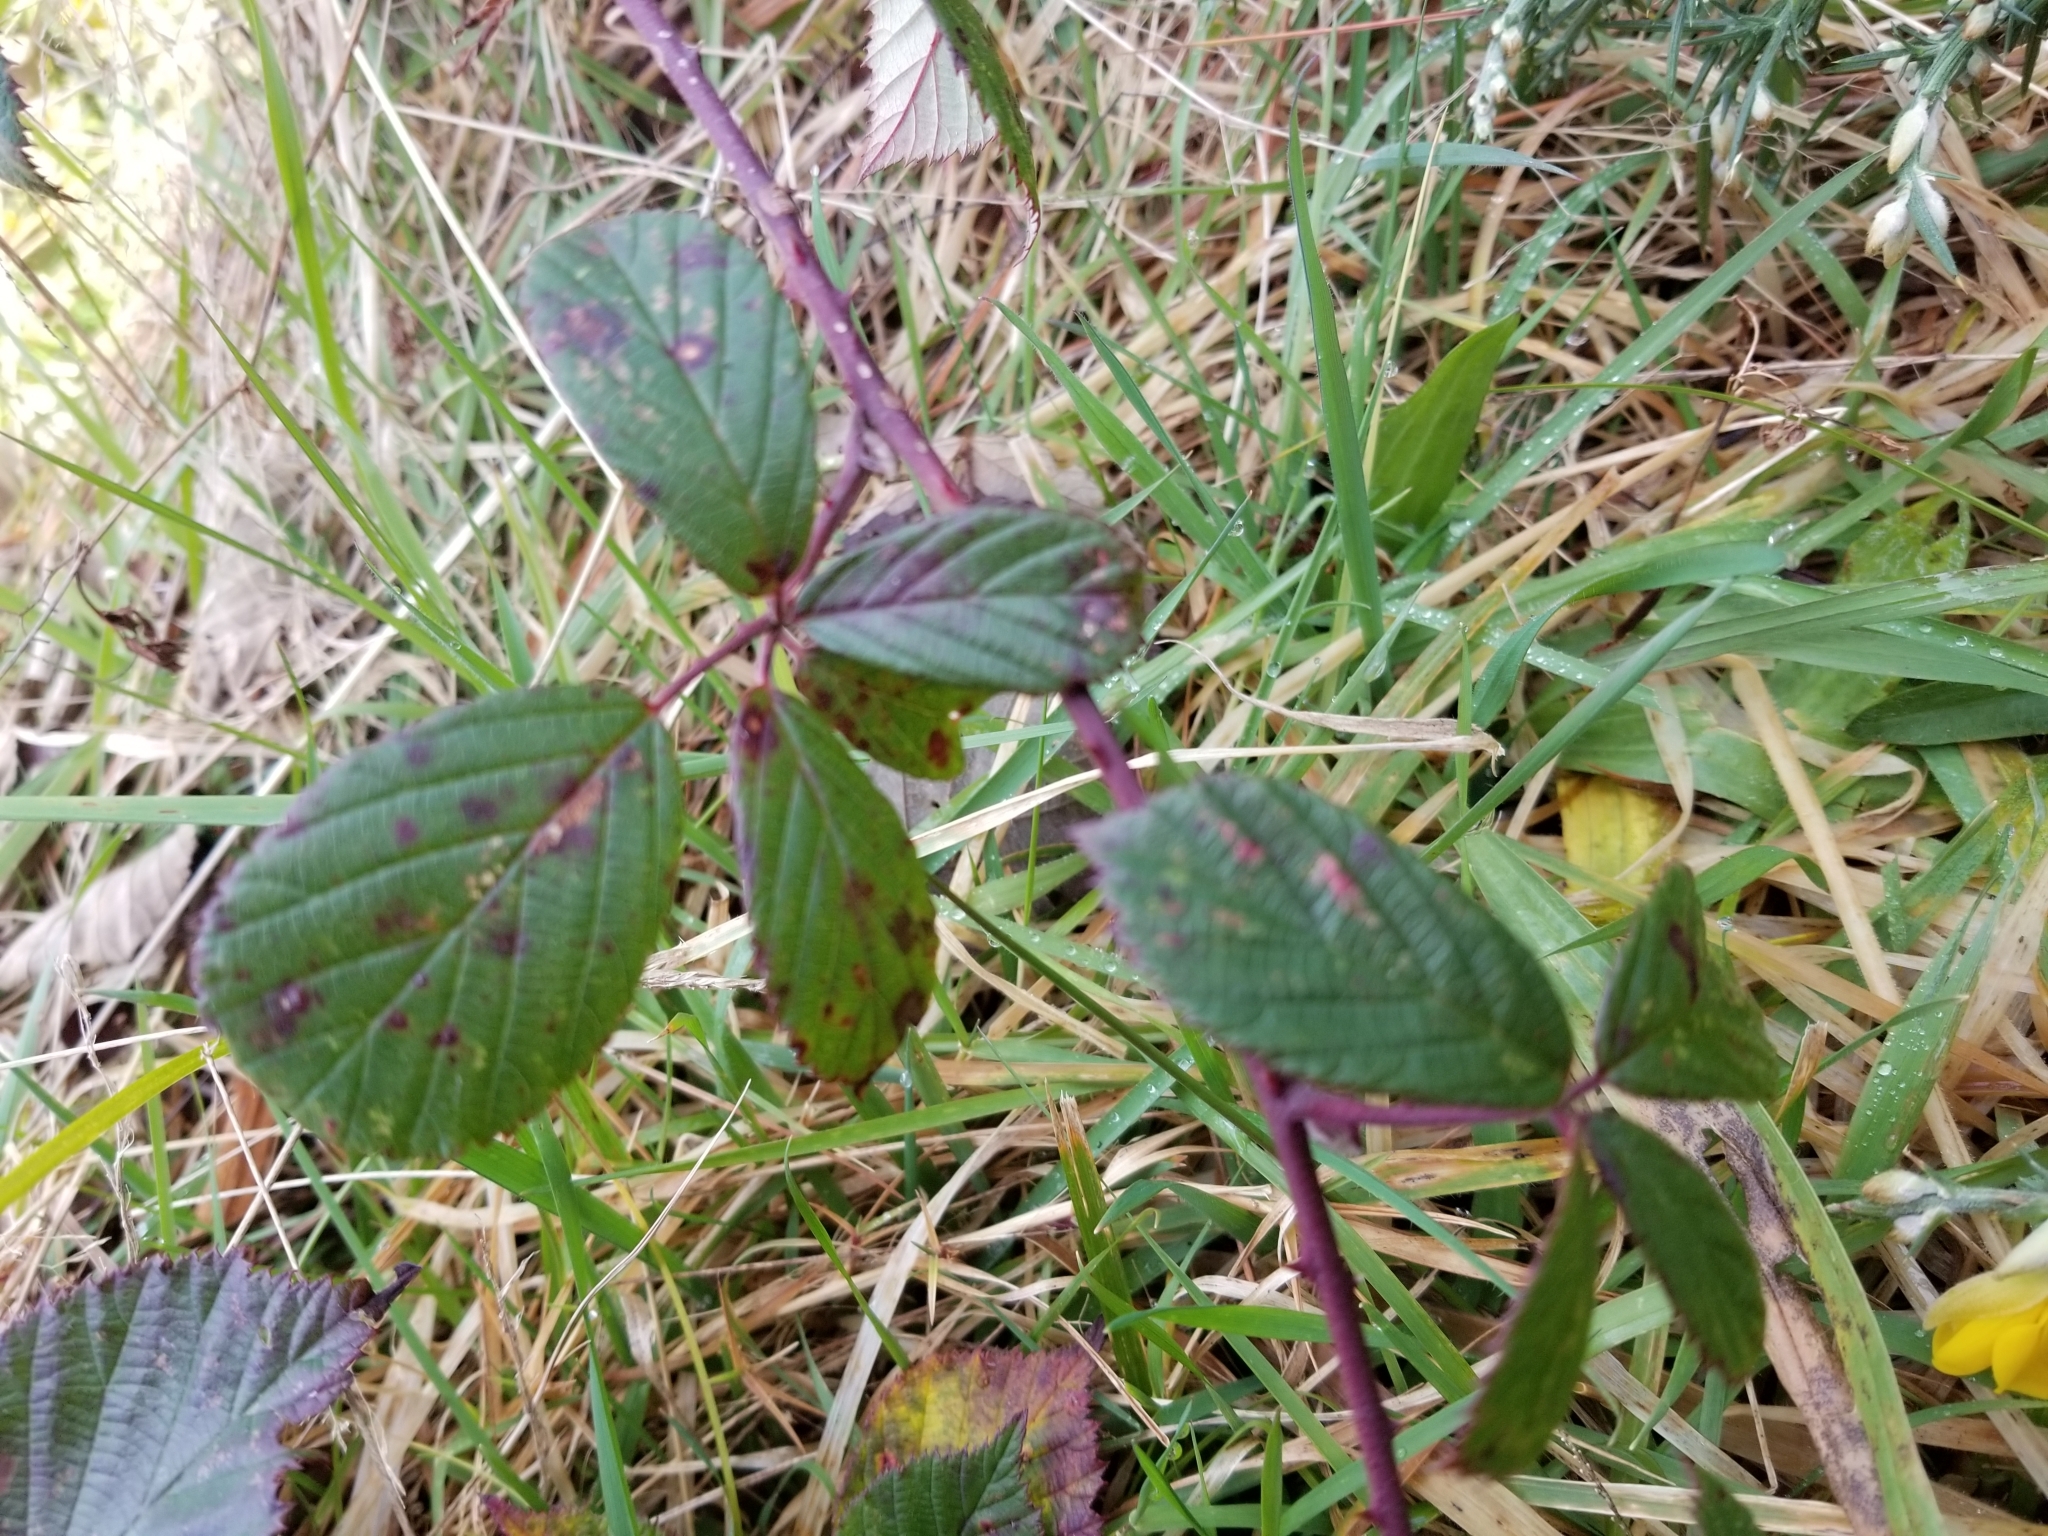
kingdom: Plantae
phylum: Tracheophyta
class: Magnoliopsida
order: Rosales
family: Rosaceae
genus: Rubus
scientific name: Rubus
